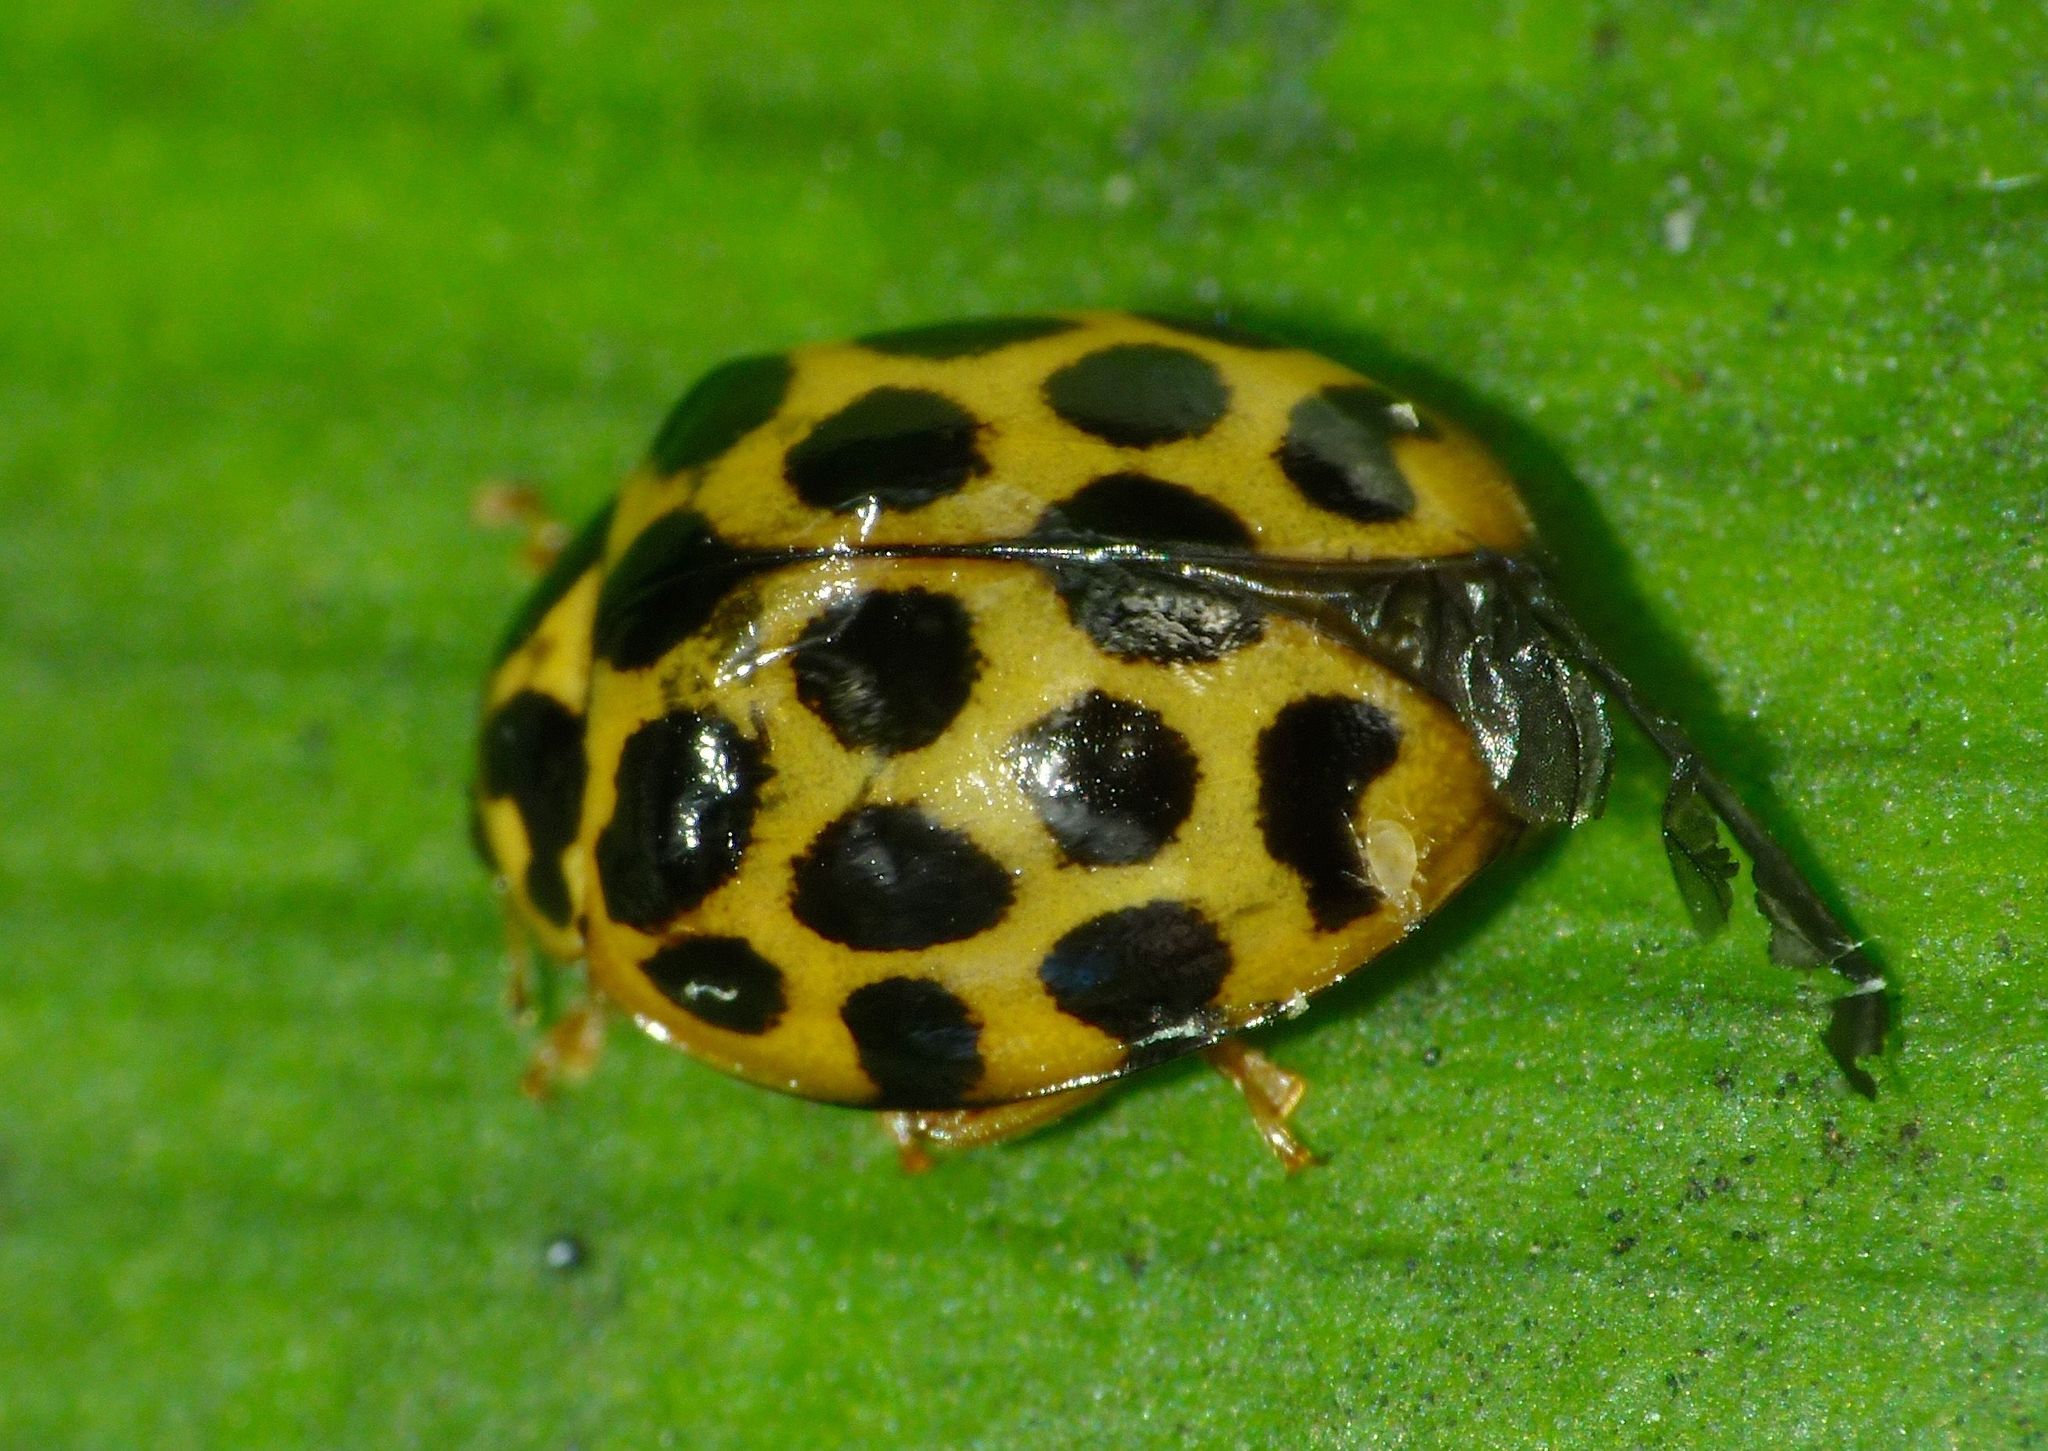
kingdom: Animalia
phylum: Arthropoda
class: Insecta
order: Coleoptera
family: Coccinellidae
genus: Harmonia
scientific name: Harmonia conformis
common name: Common spotted ladybird beetle
